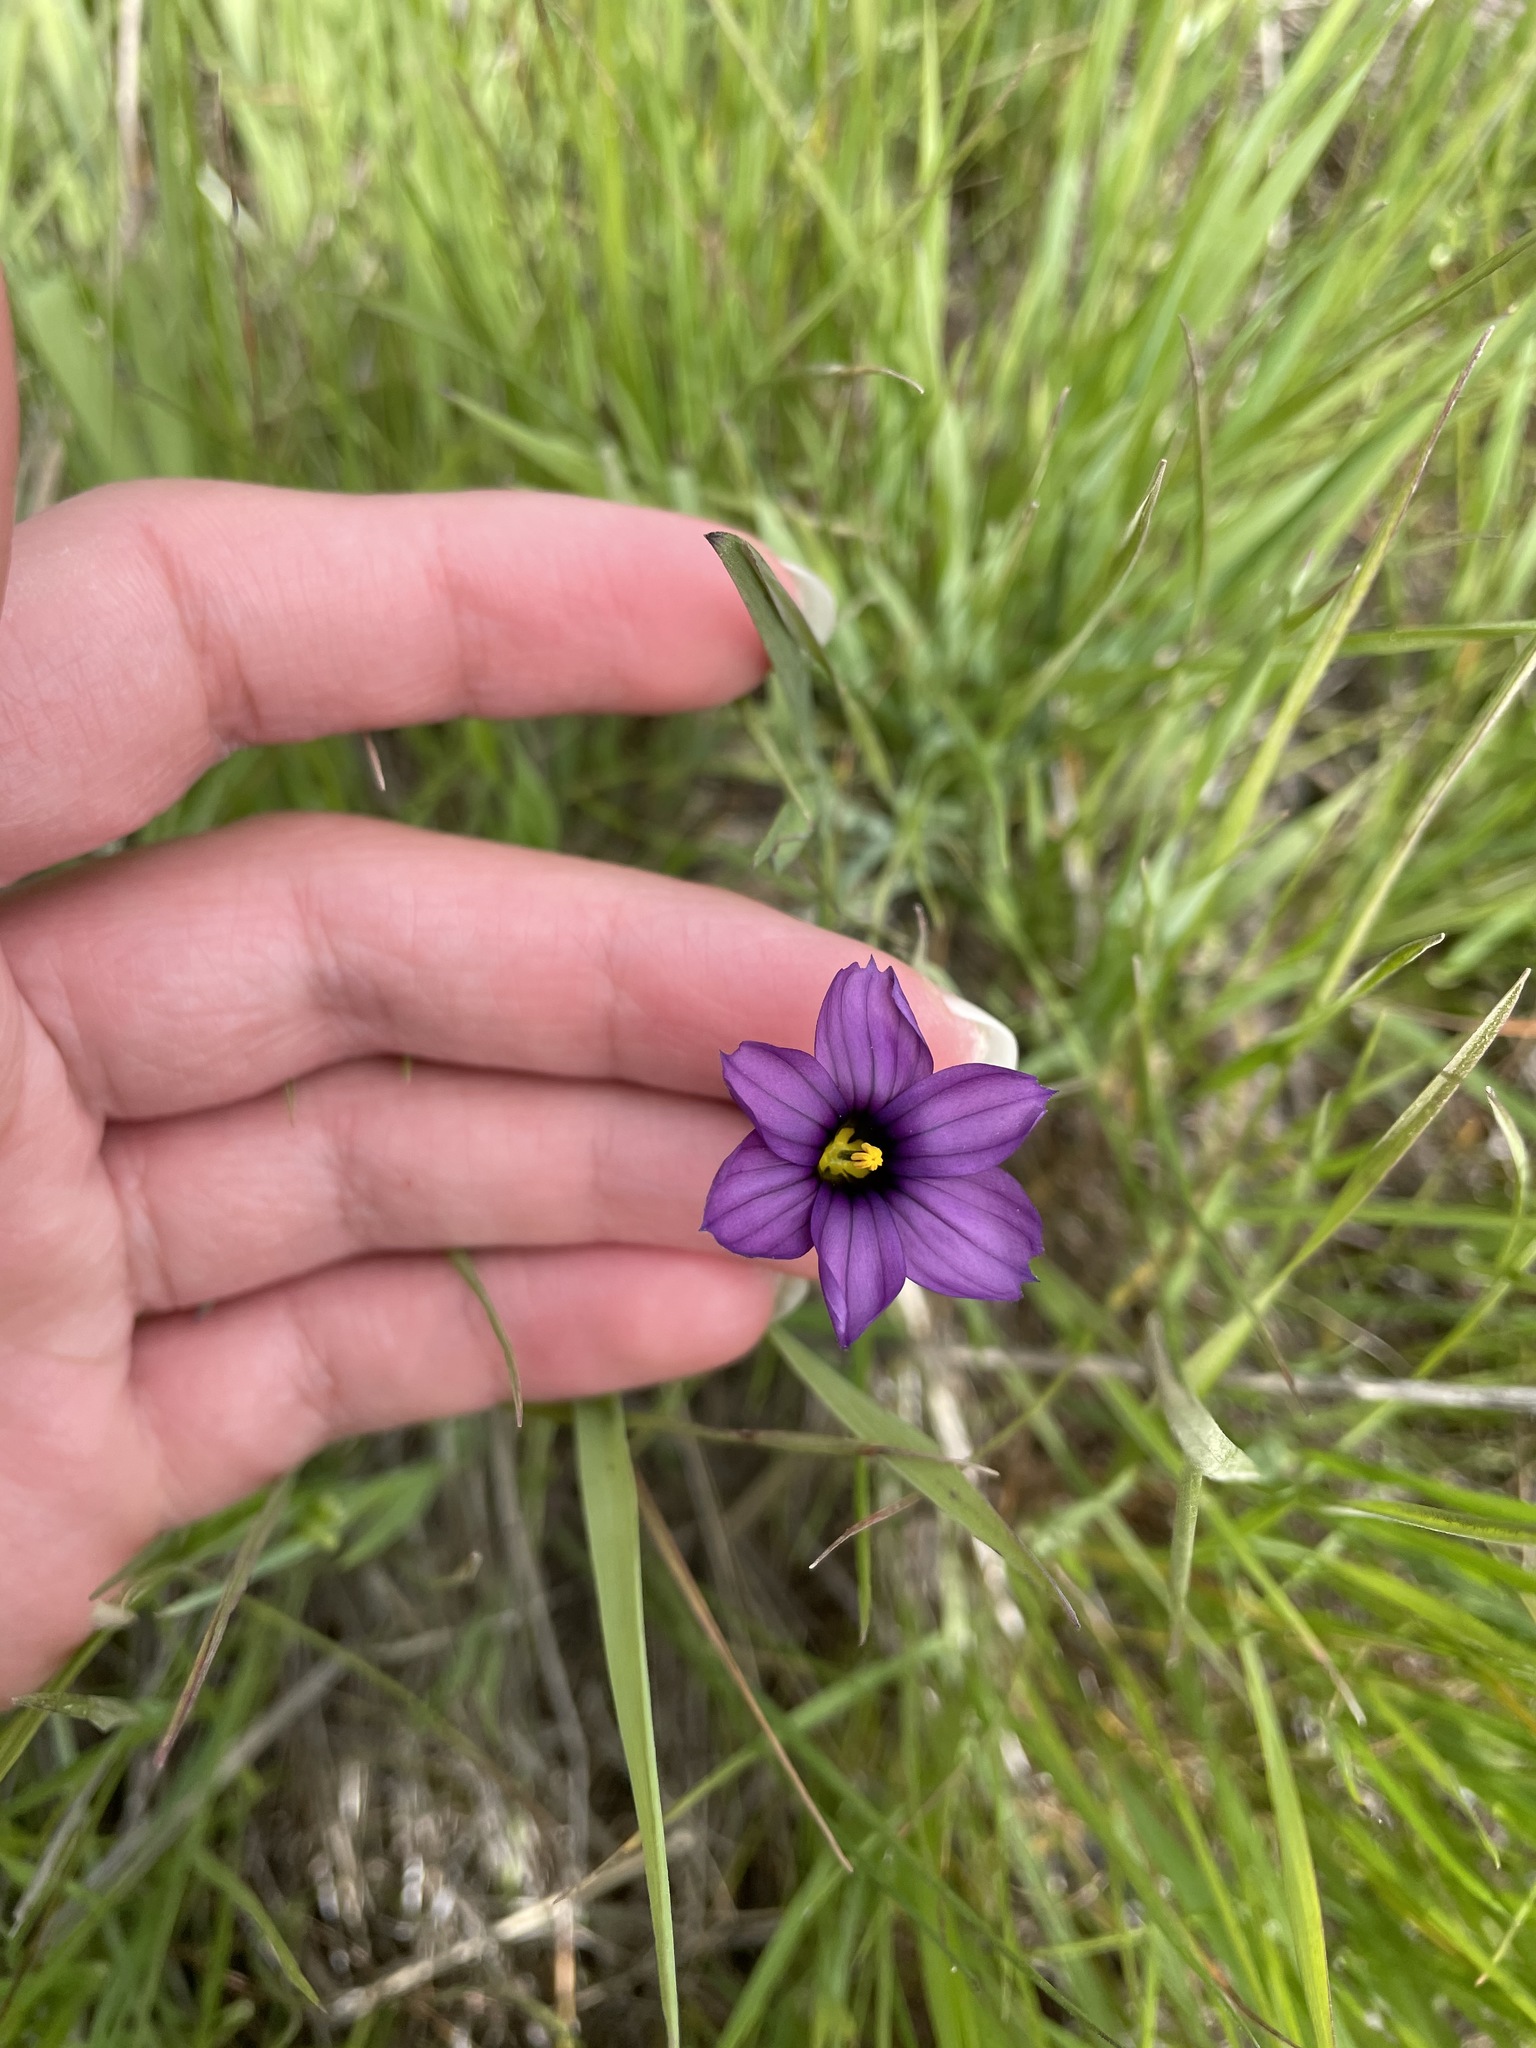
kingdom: Plantae
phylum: Tracheophyta
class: Liliopsida
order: Asparagales
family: Iridaceae
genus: Sisyrinchium
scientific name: Sisyrinchium bellum
